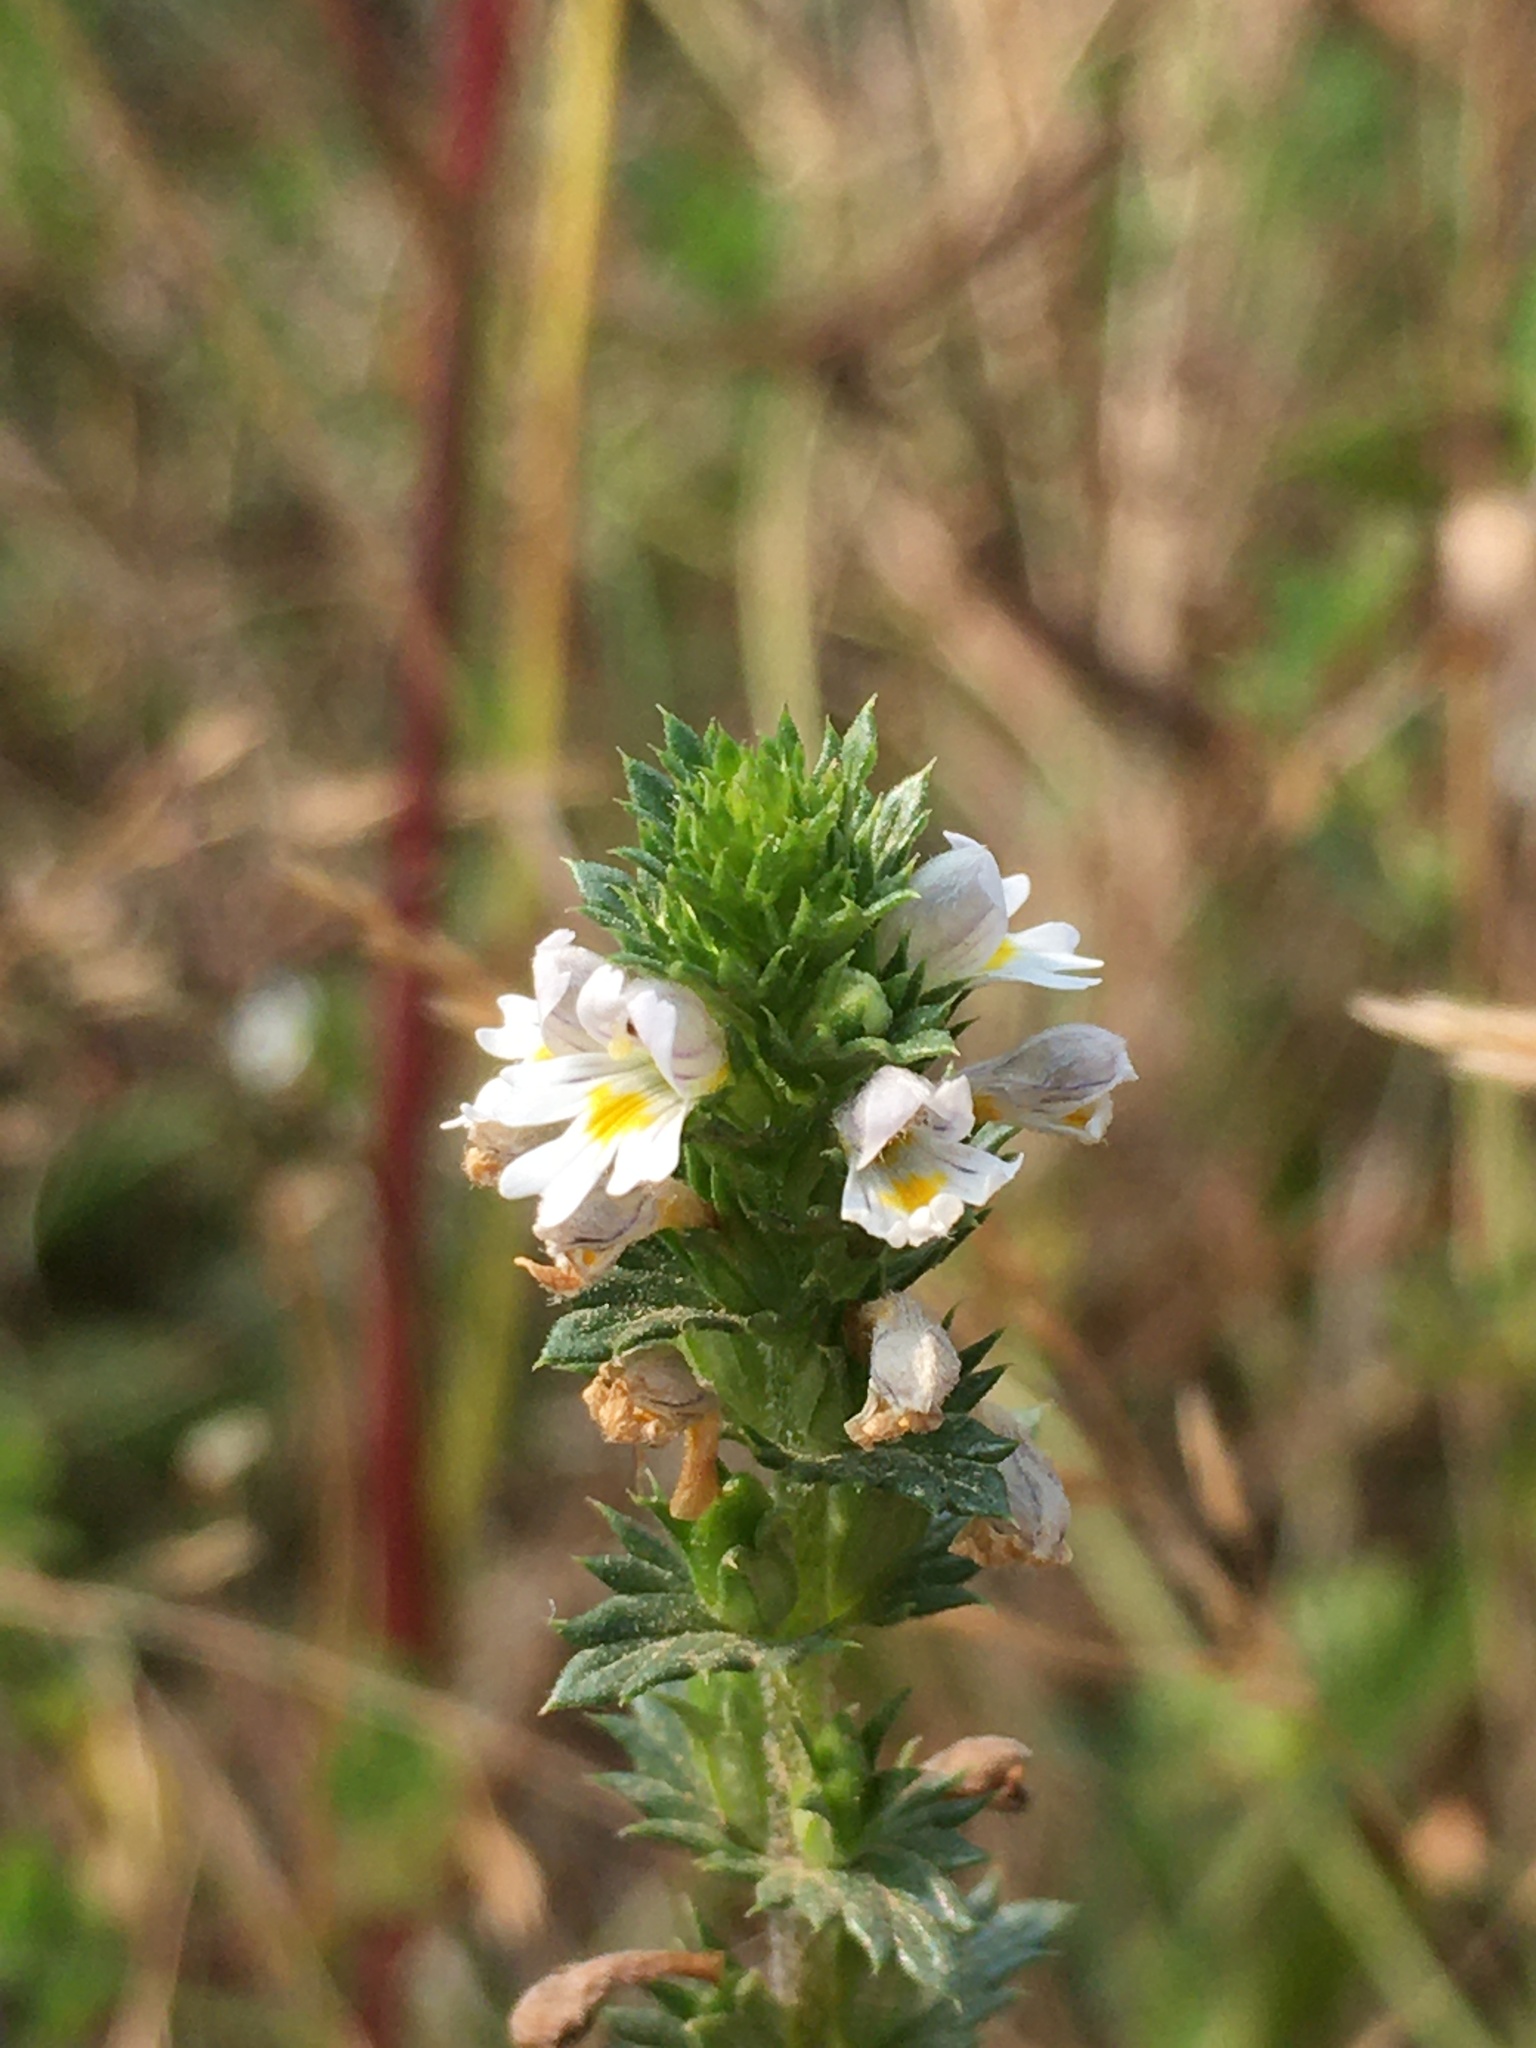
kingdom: Plantae
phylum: Tracheophyta
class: Magnoliopsida
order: Lamiales
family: Orobanchaceae
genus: Euphrasia
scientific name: Euphrasia nemorosa
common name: Common eyebright
